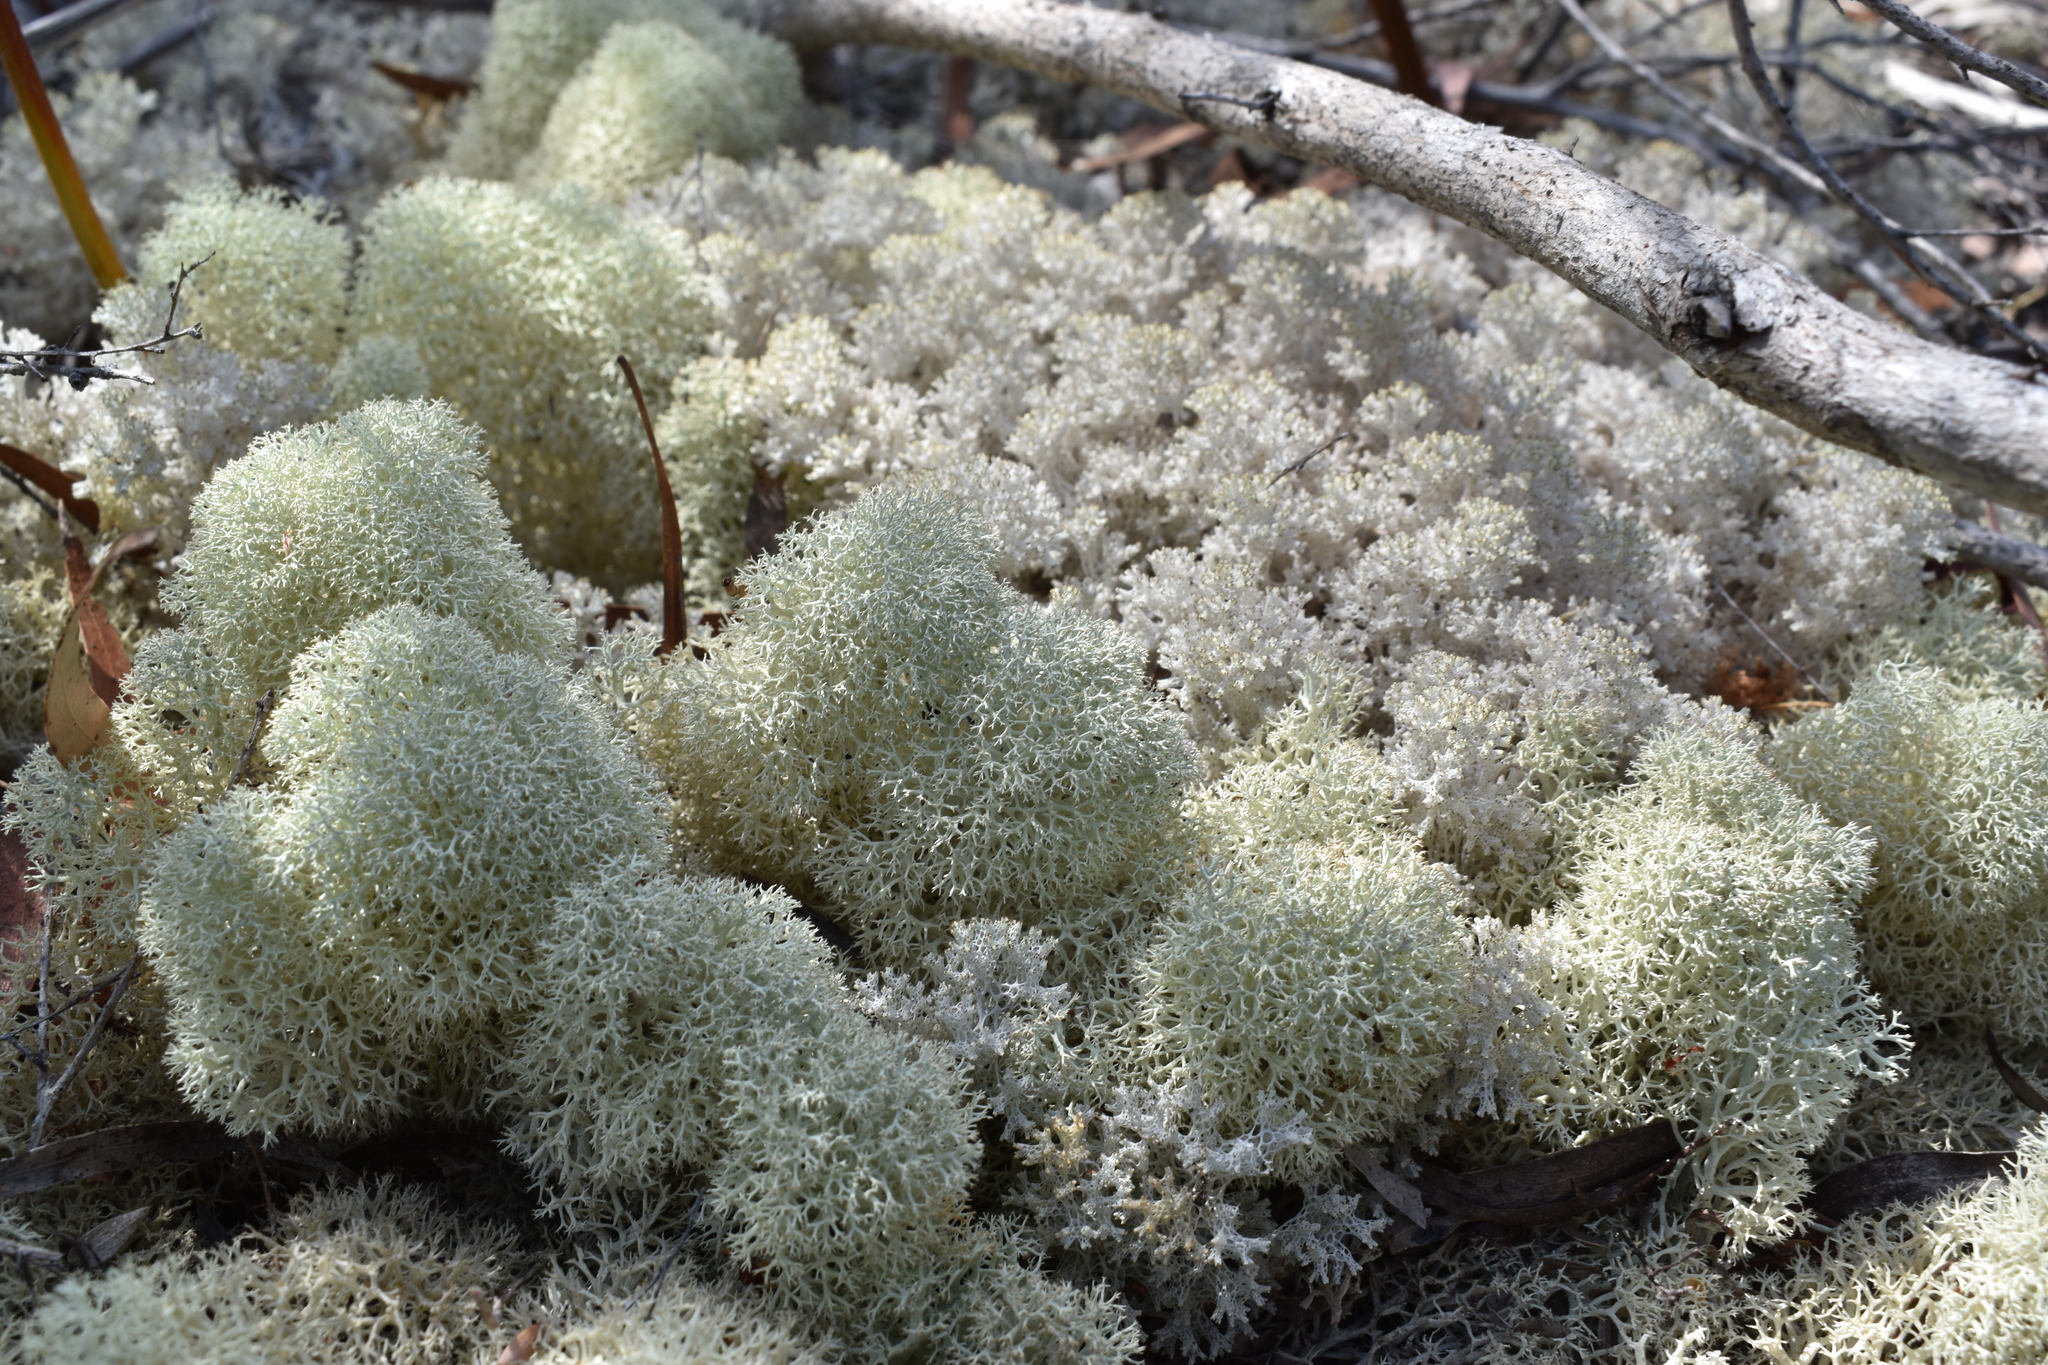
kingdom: Fungi
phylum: Ascomycota
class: Lecanoromycetes
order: Lecanorales
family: Cladoniaceae
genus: Cladonia
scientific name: Cladonia confusa
